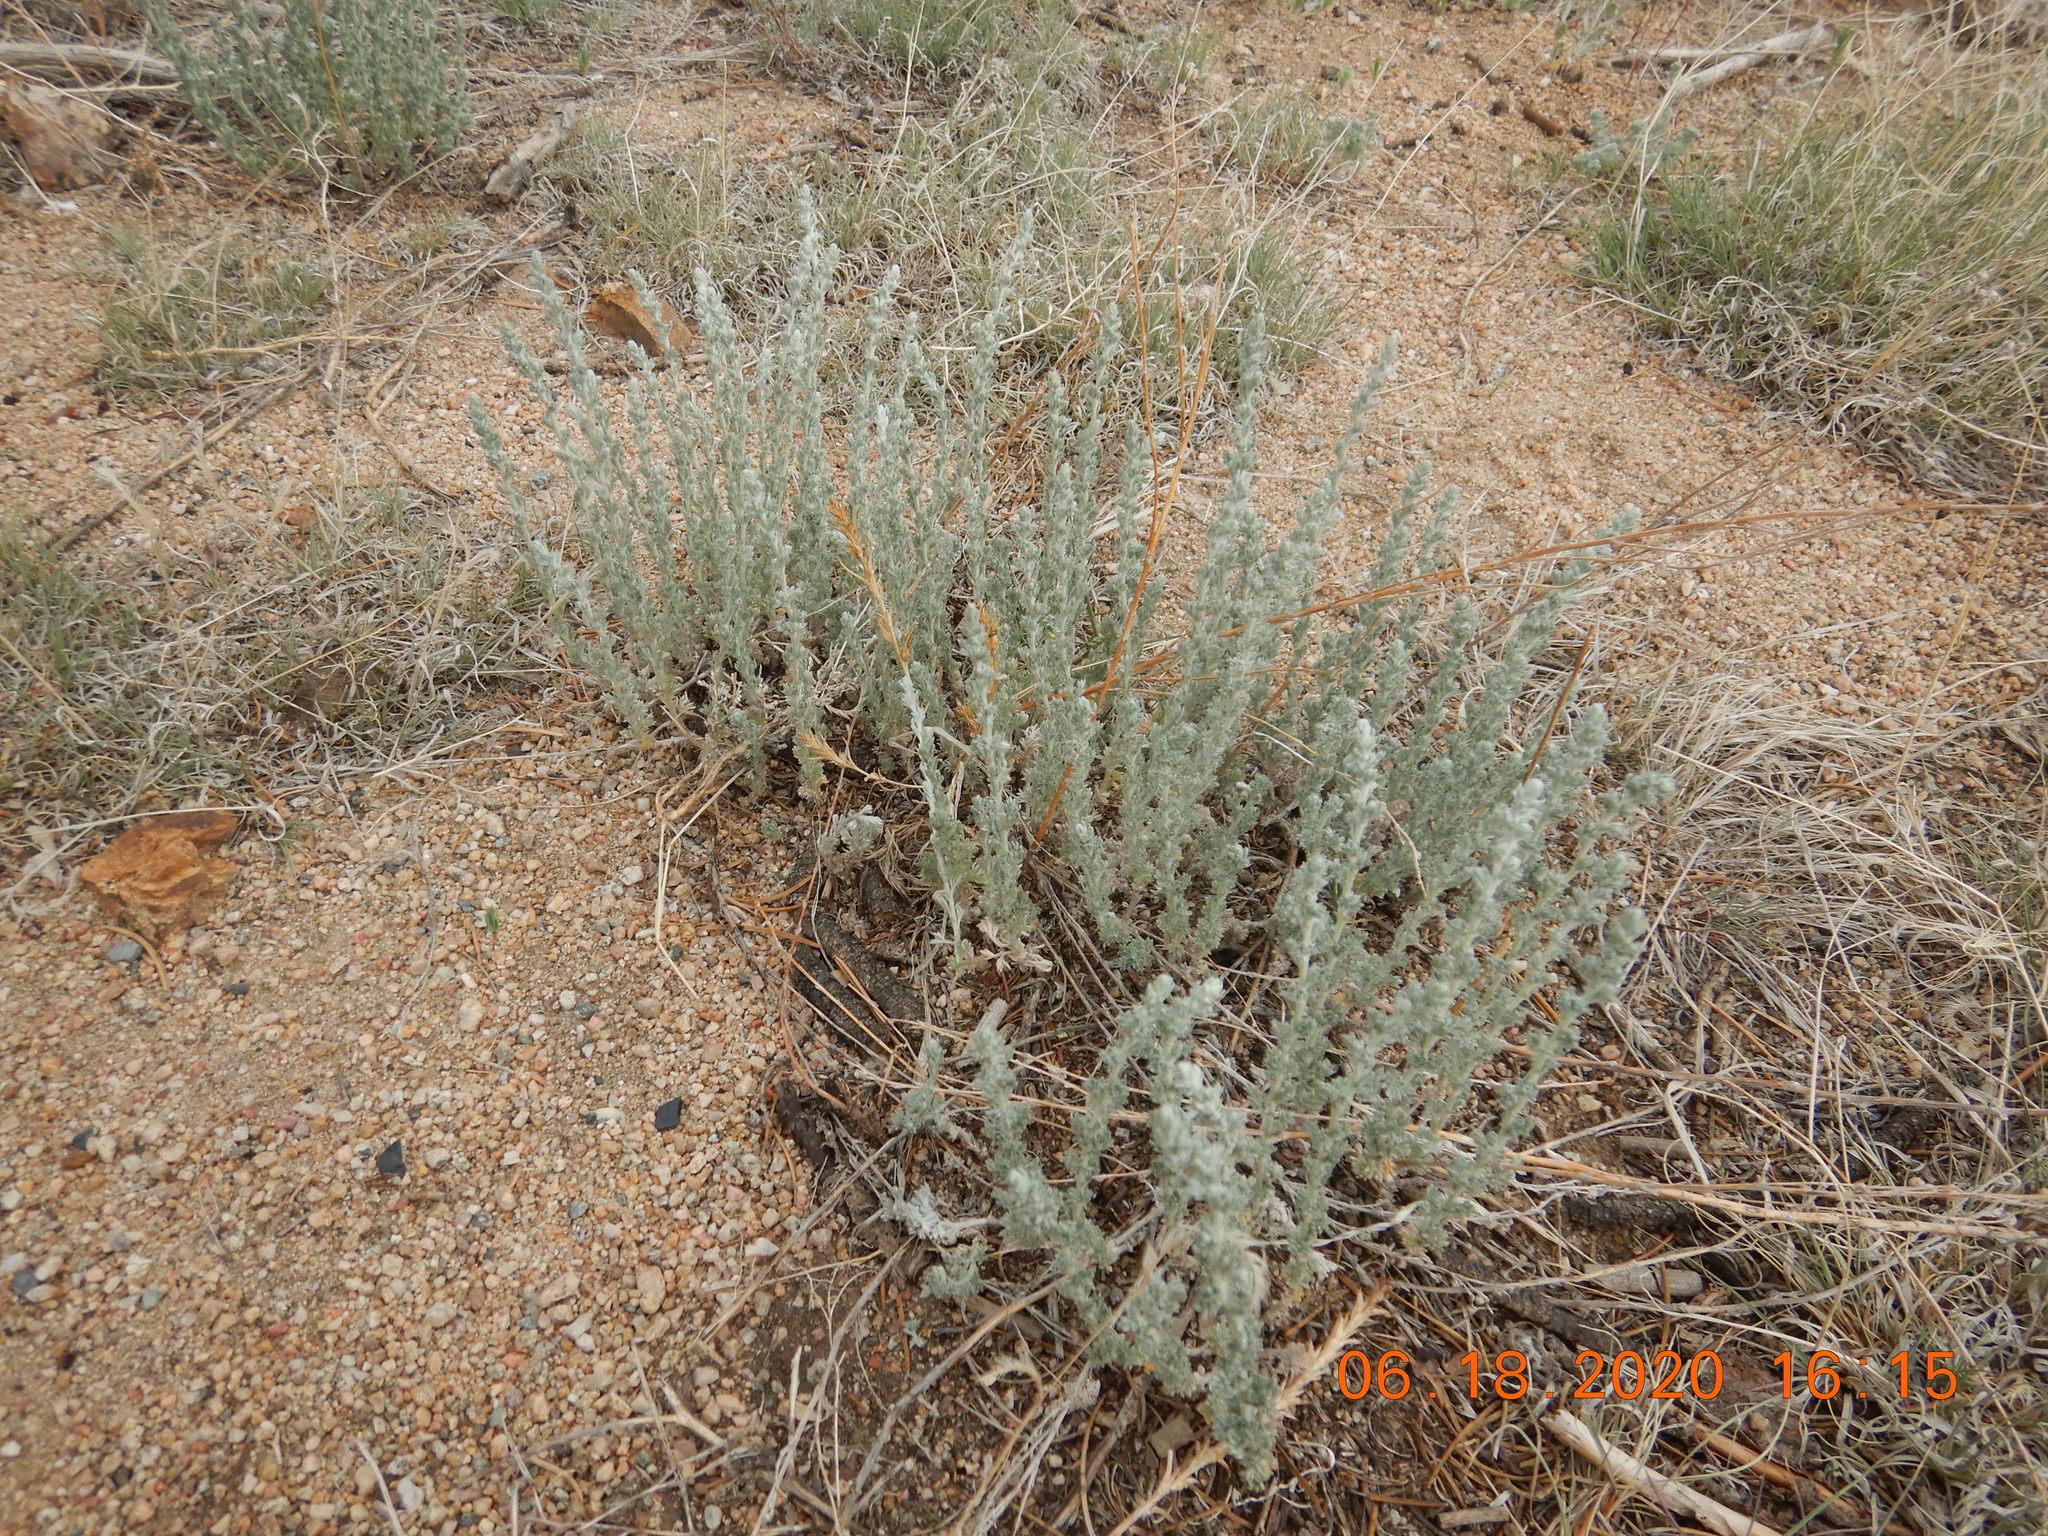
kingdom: Plantae
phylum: Tracheophyta
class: Magnoliopsida
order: Asterales
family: Asteraceae
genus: Artemisia
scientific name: Artemisia frigida
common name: Prairie sagewort
